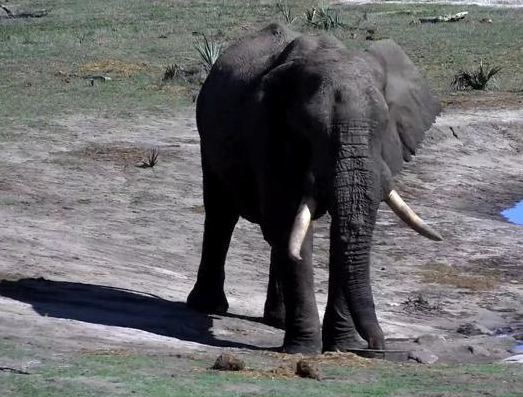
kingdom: Animalia
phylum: Chordata
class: Mammalia
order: Proboscidea
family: Elephantidae
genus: Loxodonta
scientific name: Loxodonta africana
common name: African elephant
